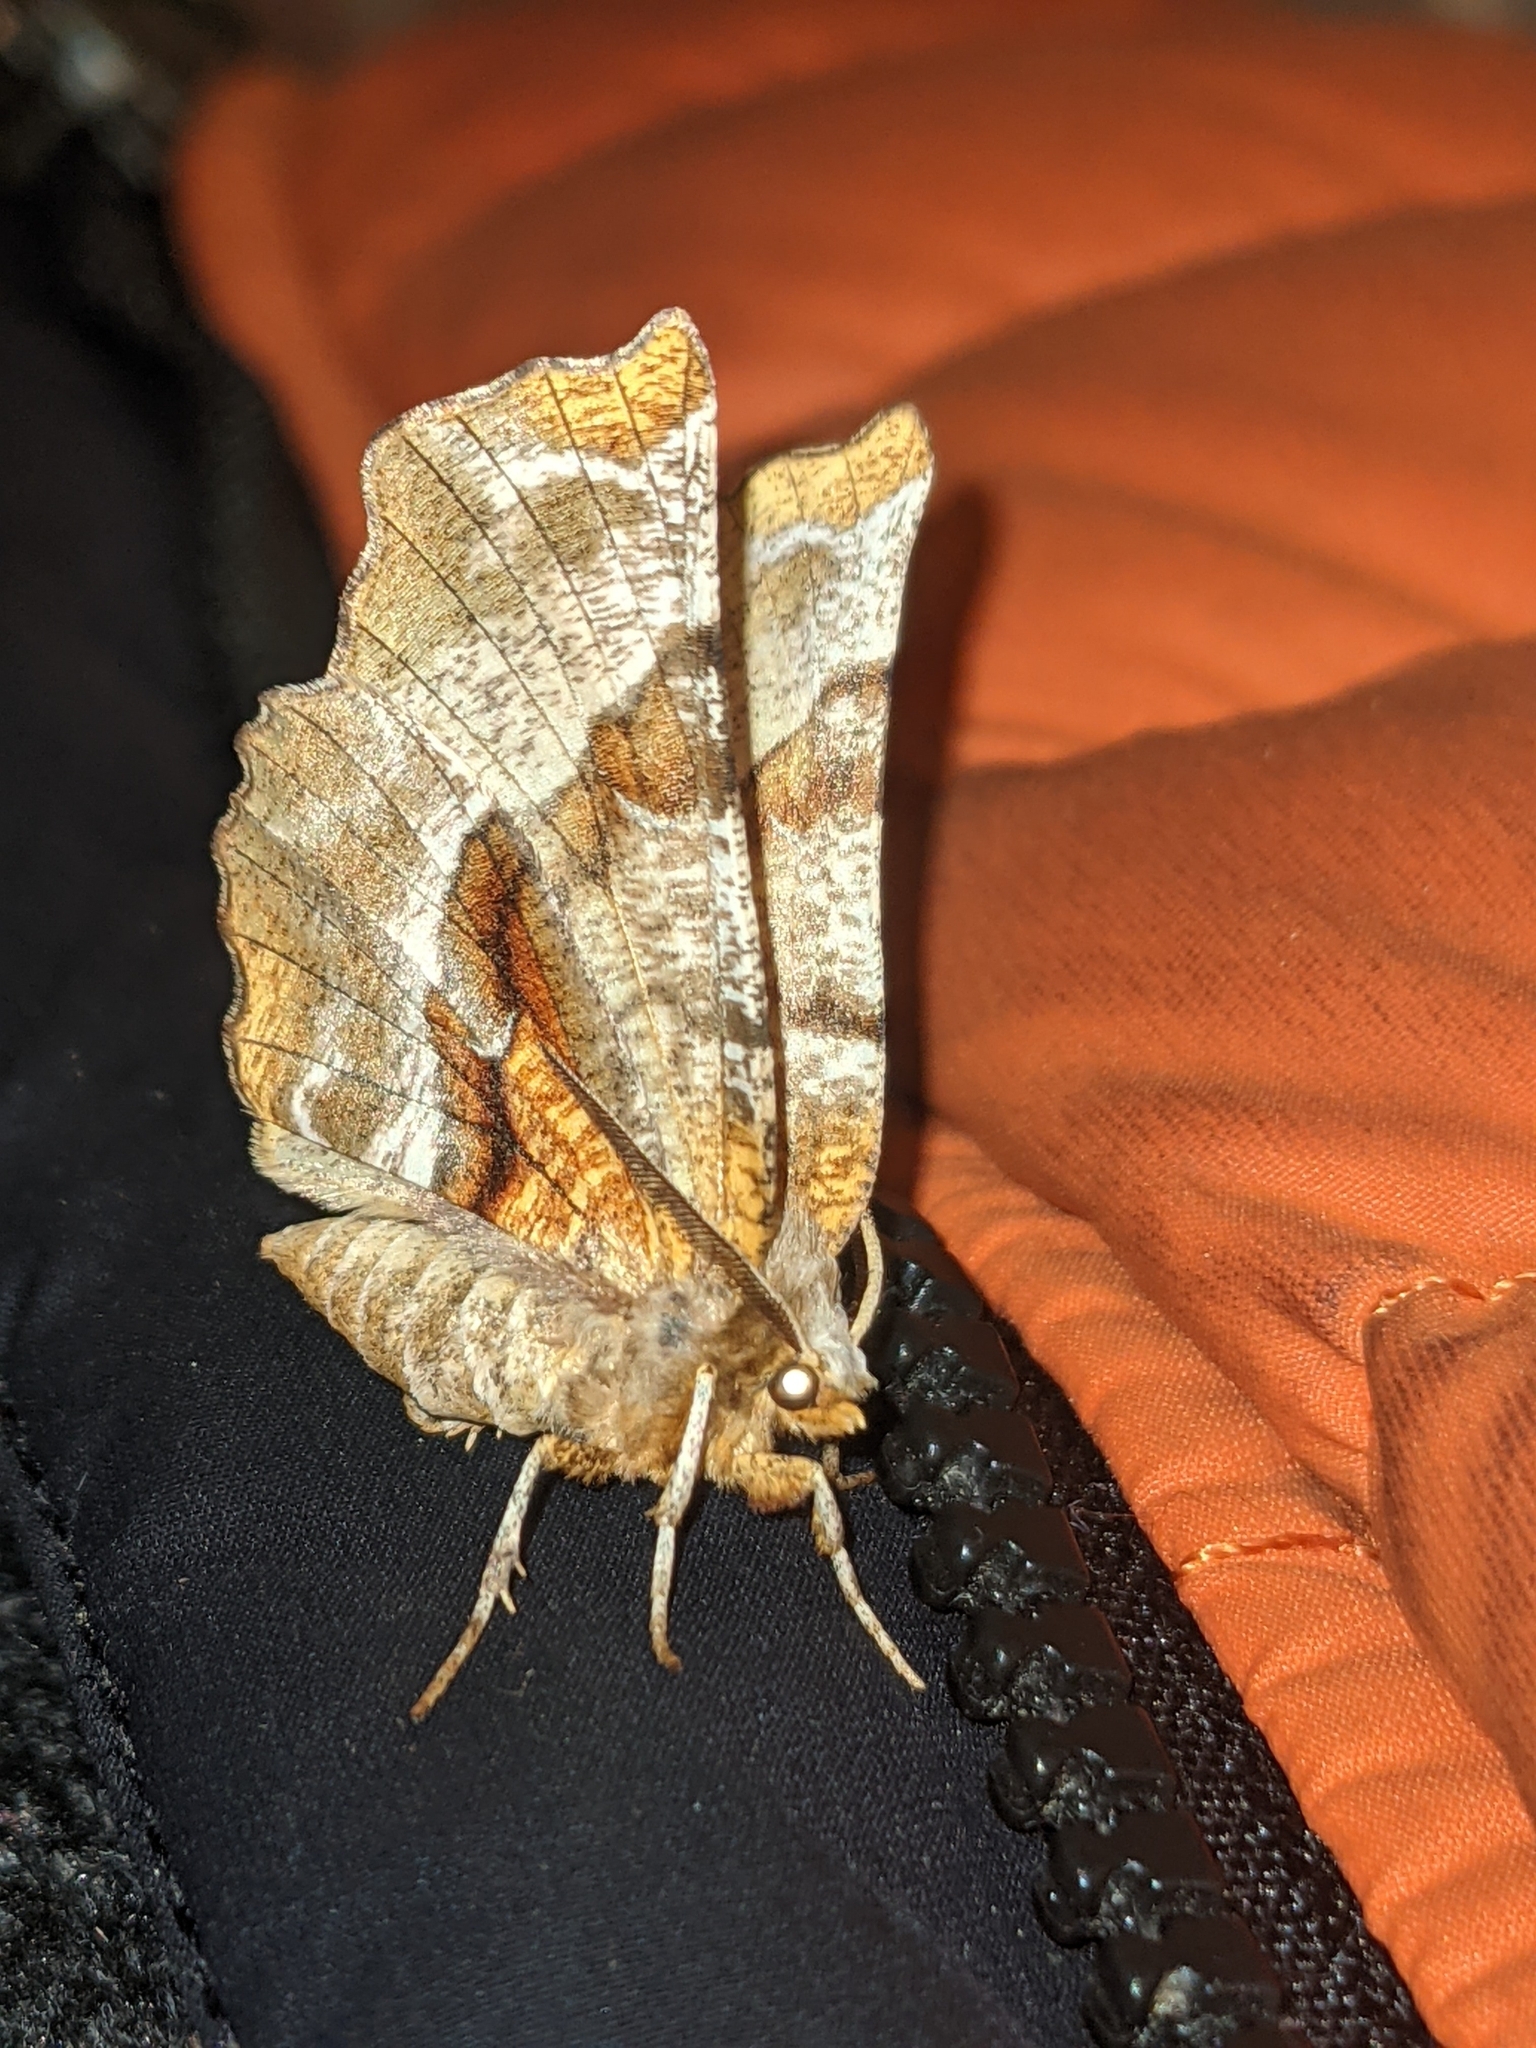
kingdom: Animalia
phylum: Arthropoda
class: Insecta
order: Lepidoptera
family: Geometridae
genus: Selenia
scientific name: Selenia kentaria
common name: Kent's geometer
